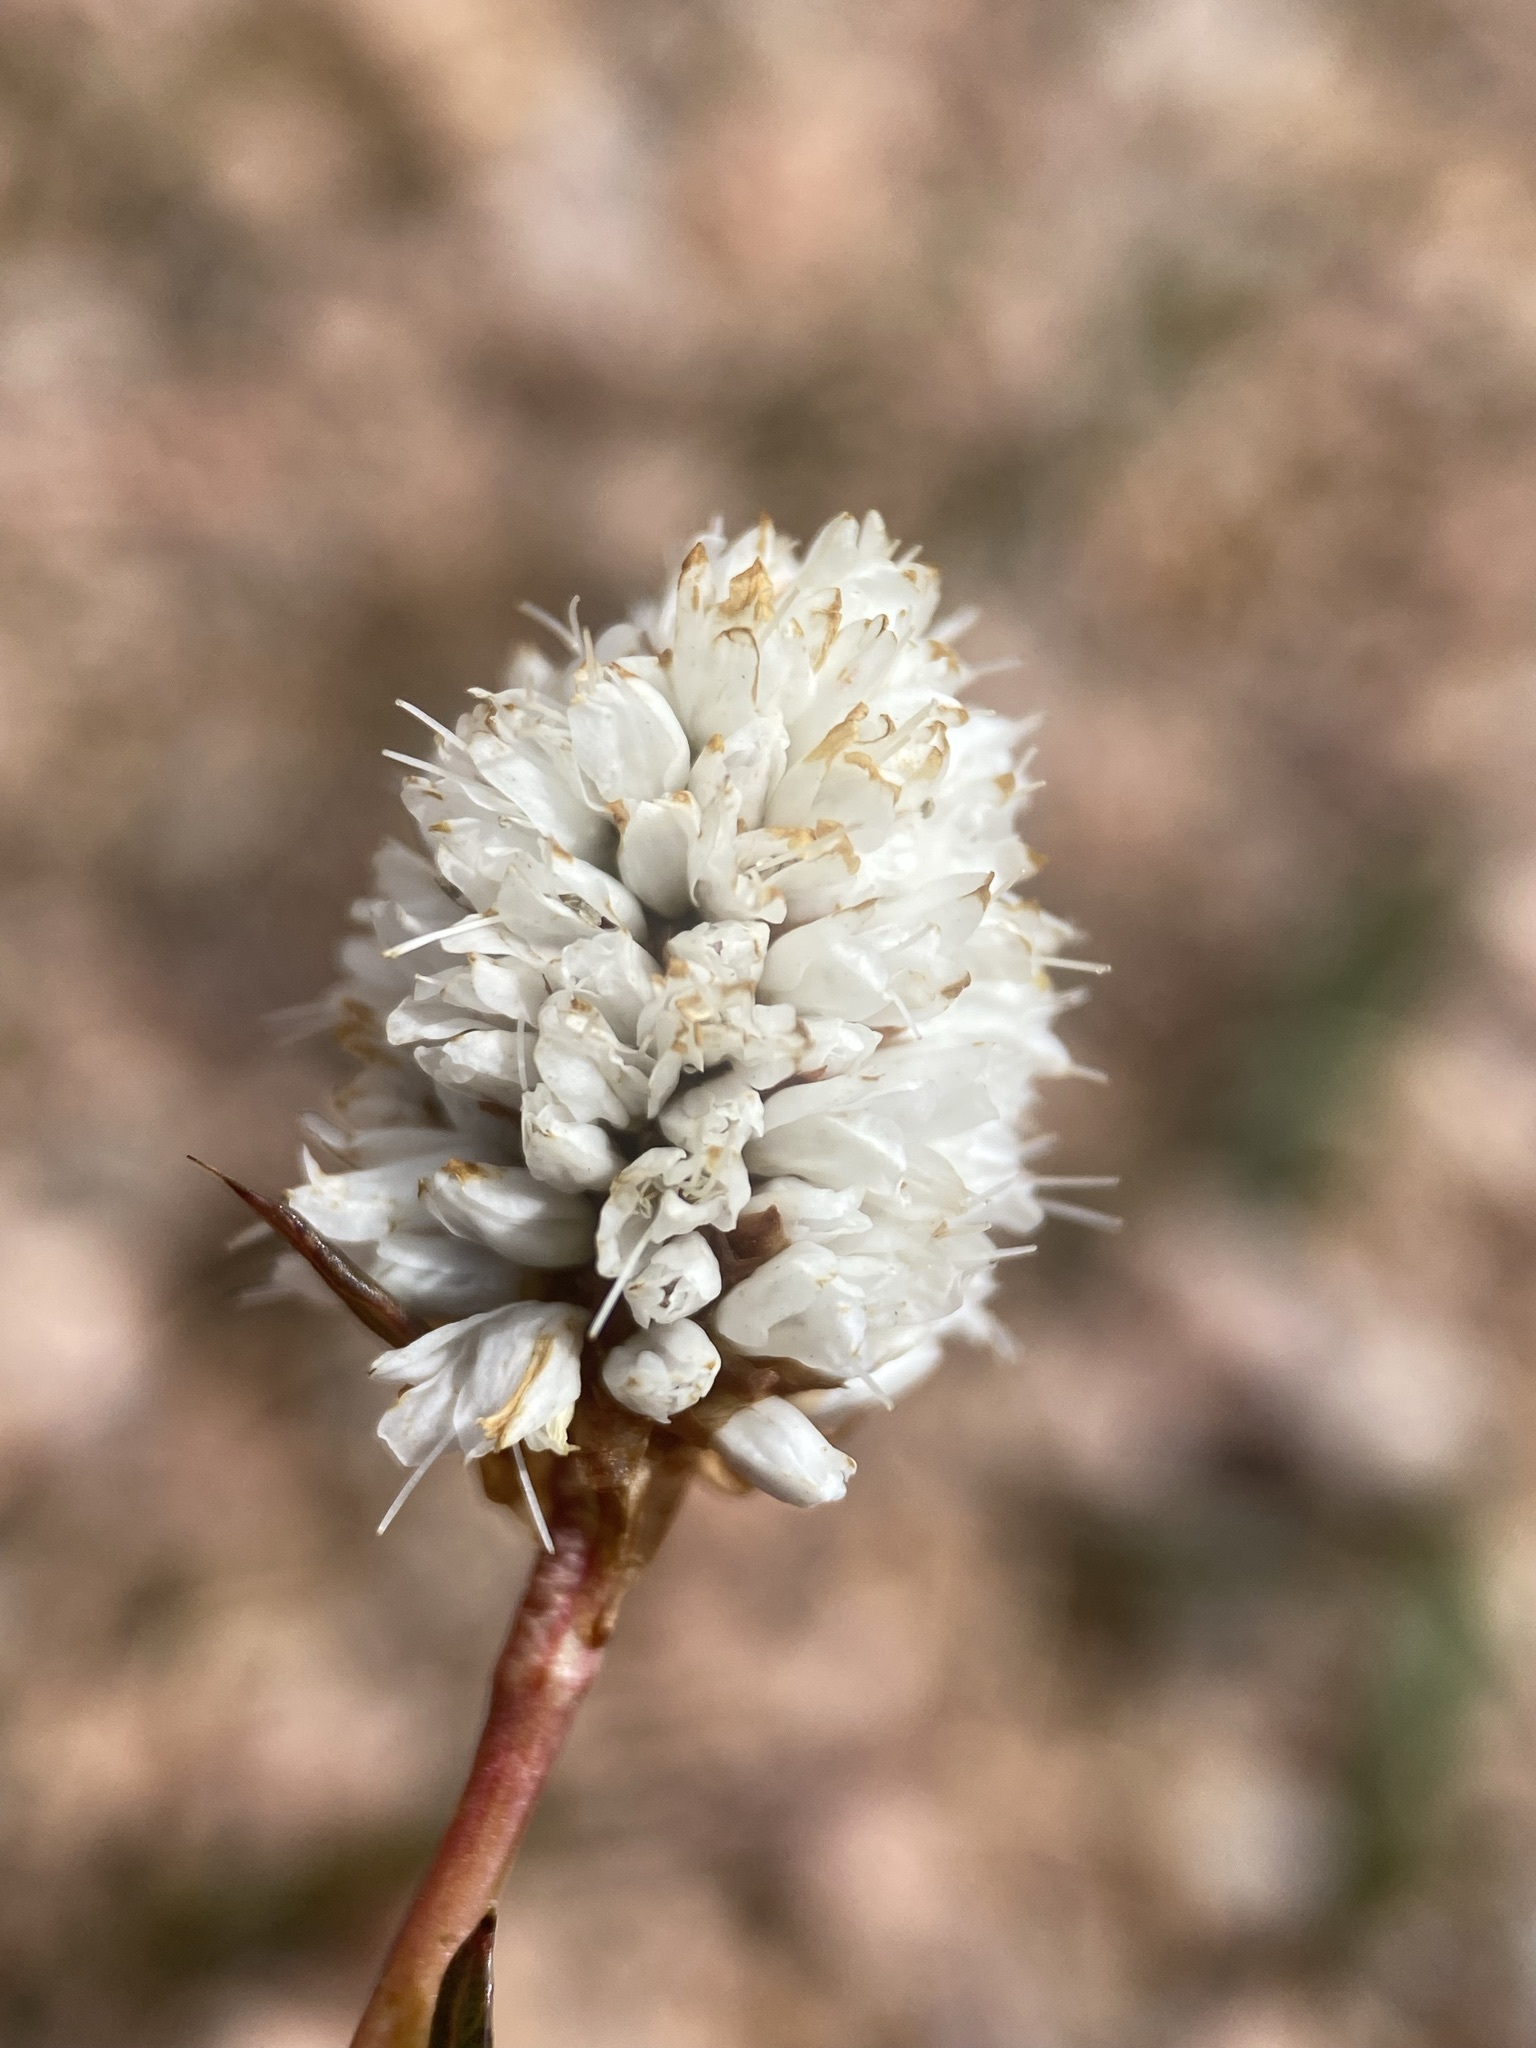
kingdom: Plantae
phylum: Tracheophyta
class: Magnoliopsida
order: Caryophyllales
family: Polygonaceae
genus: Bistorta
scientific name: Bistorta bistortoides
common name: American bistort
